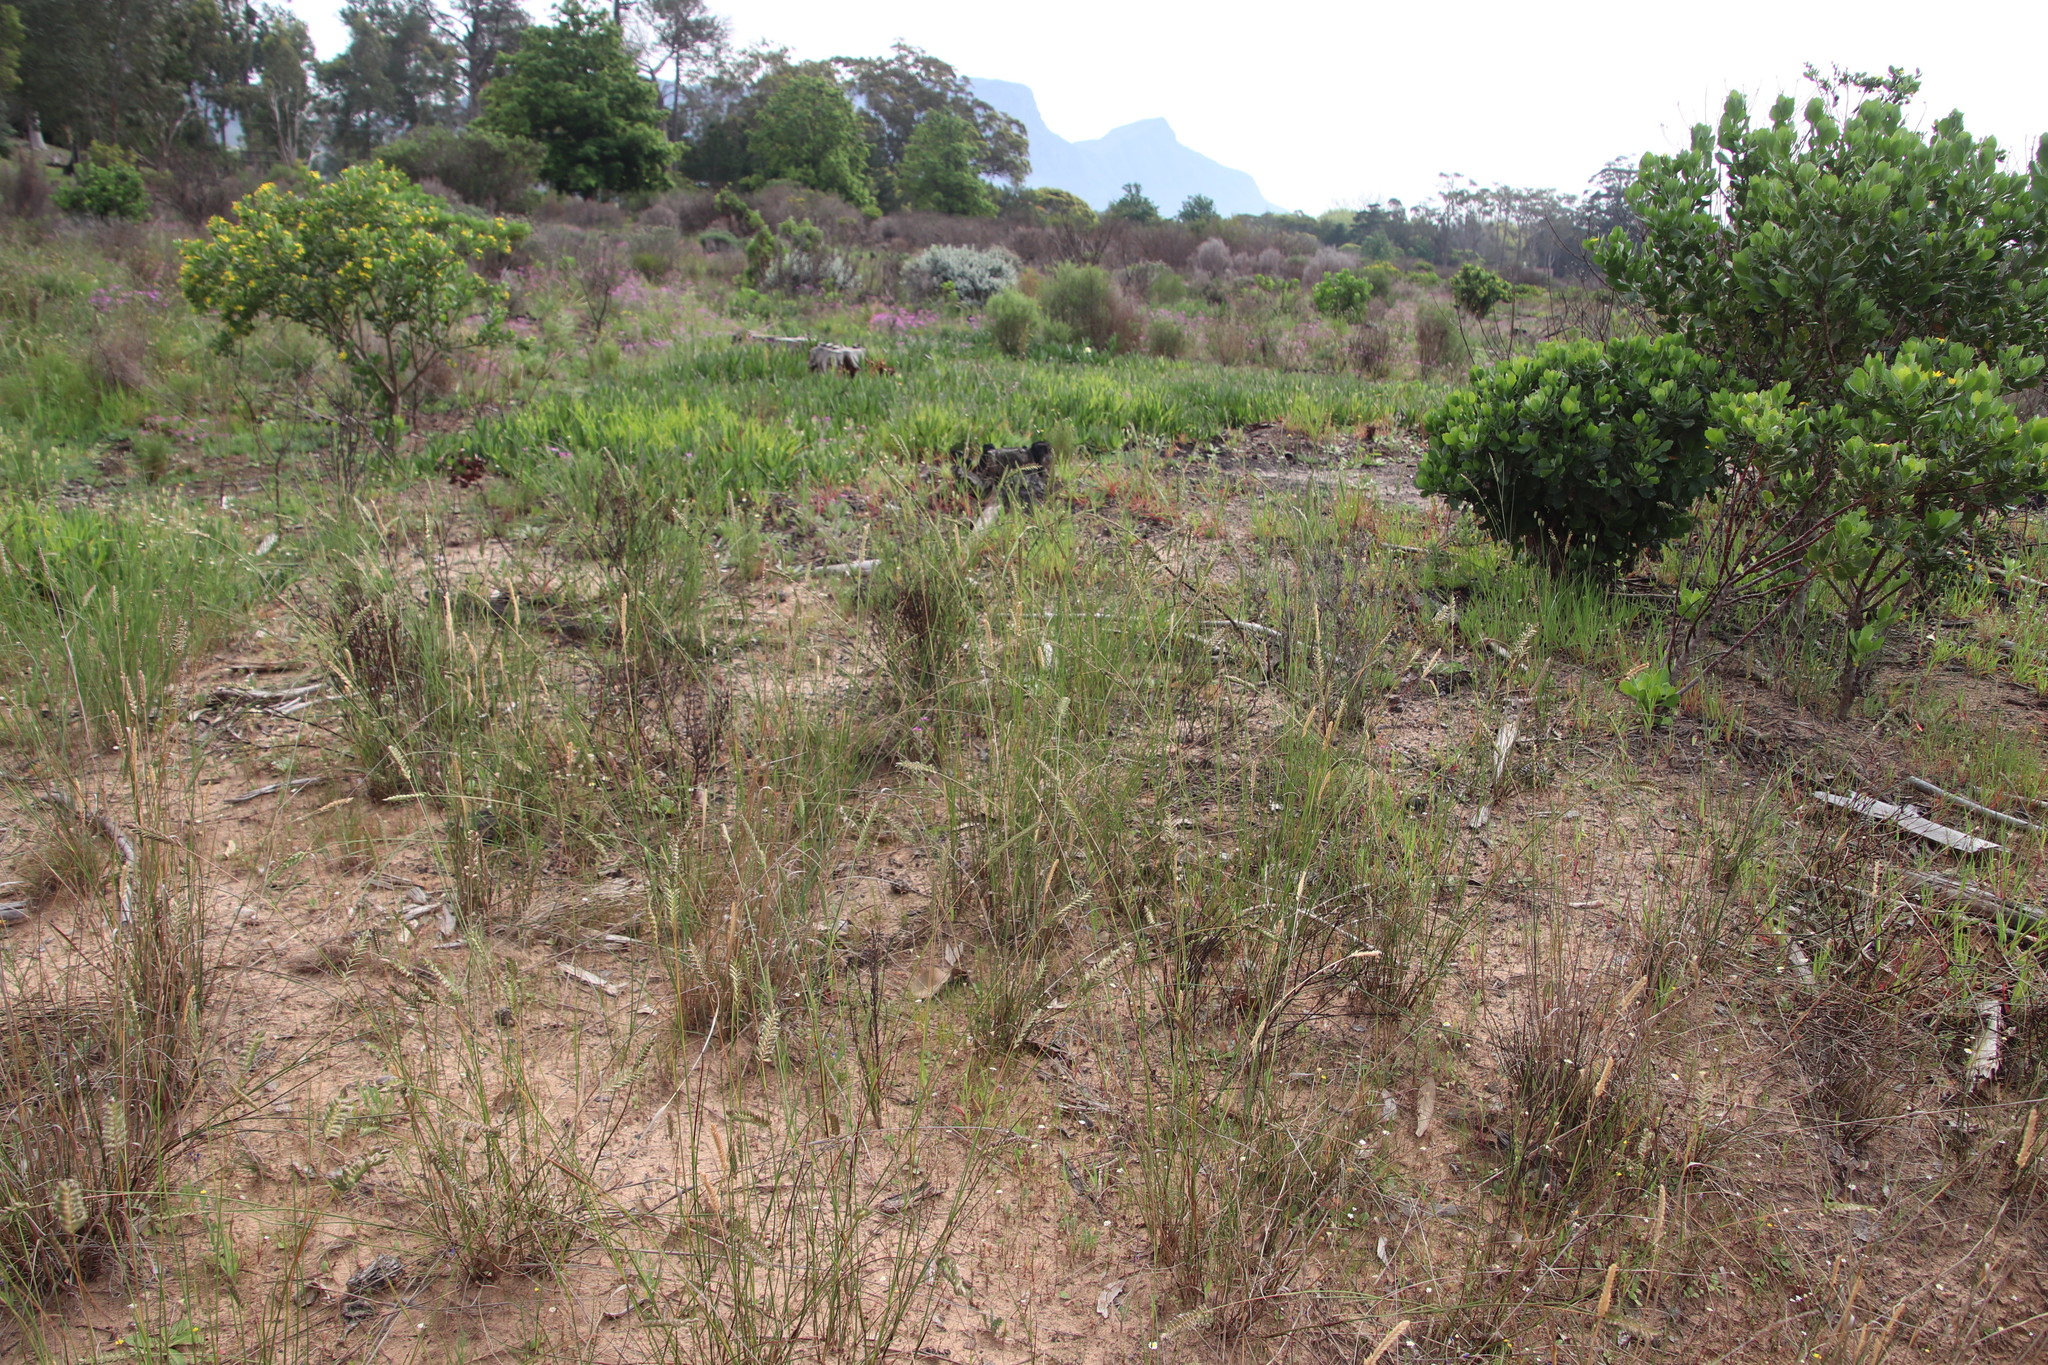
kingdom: Plantae
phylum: Tracheophyta
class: Liliopsida
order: Poales
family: Poaceae
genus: Tribolium
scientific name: Tribolium uniolae
